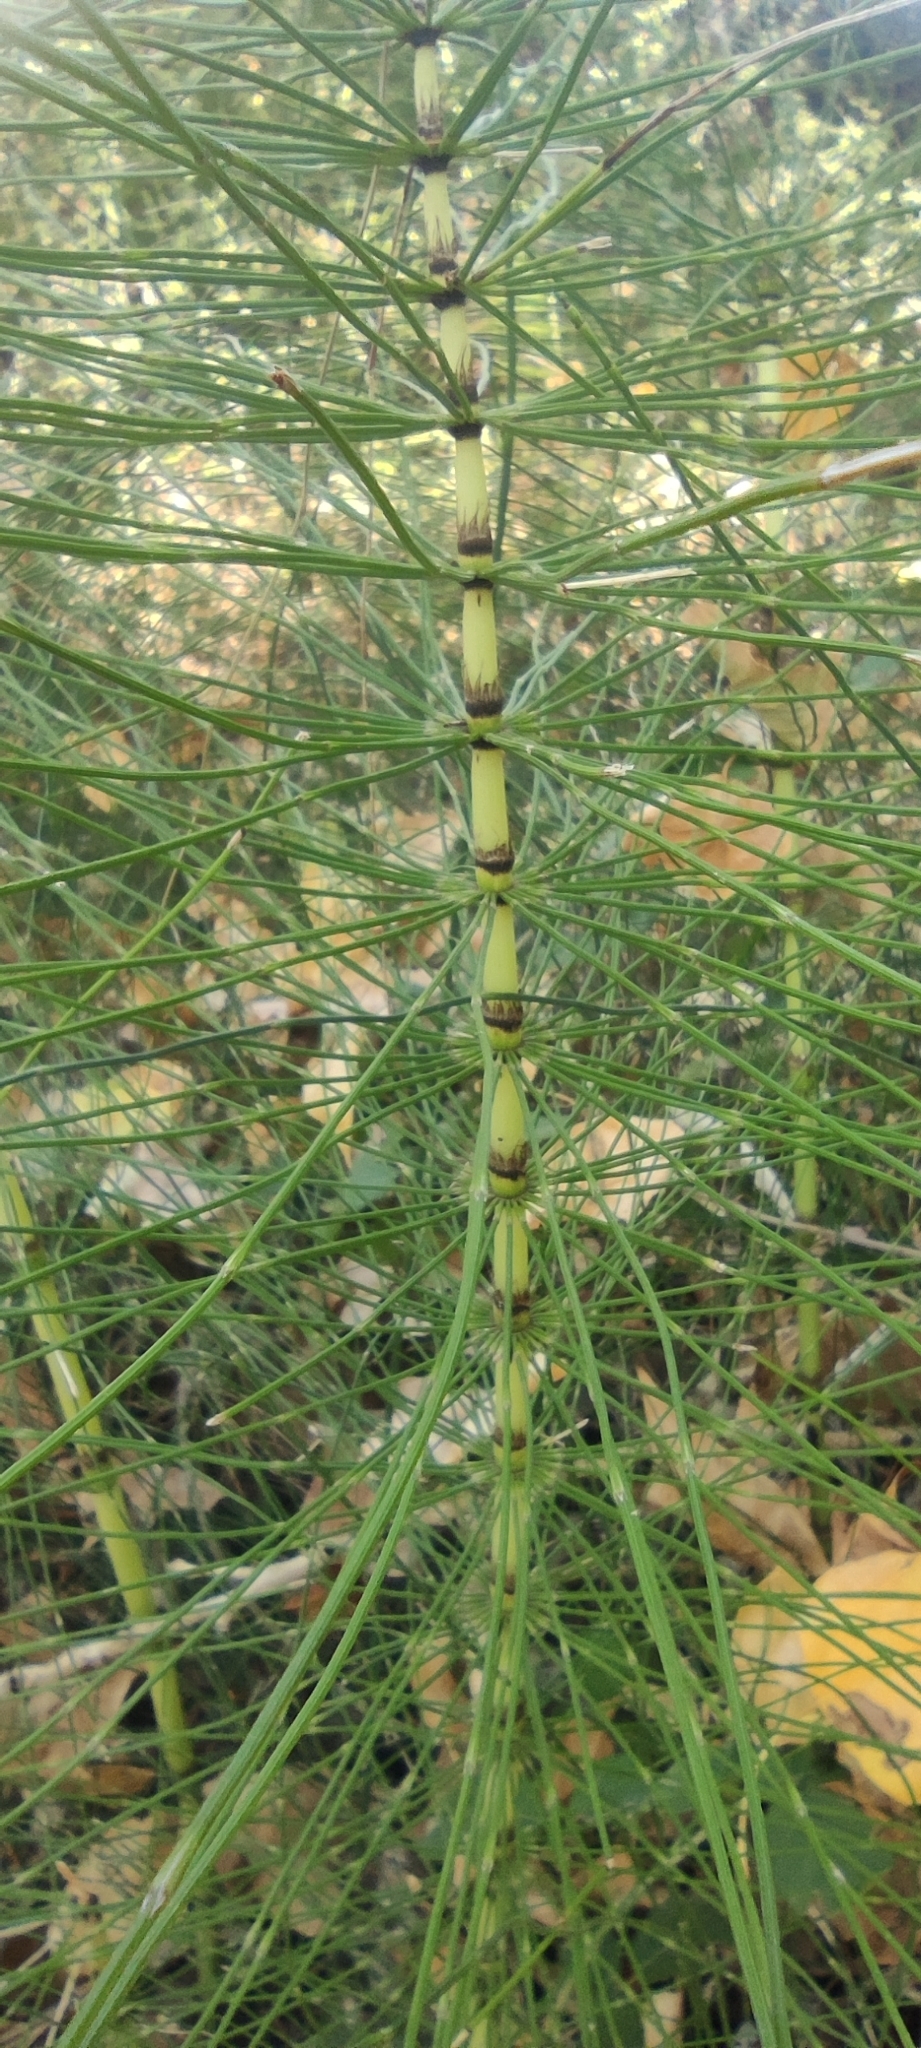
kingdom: Plantae
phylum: Tracheophyta
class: Polypodiopsida
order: Equisetales
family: Equisetaceae
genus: Equisetum
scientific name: Equisetum telmateia
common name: Great horsetail
